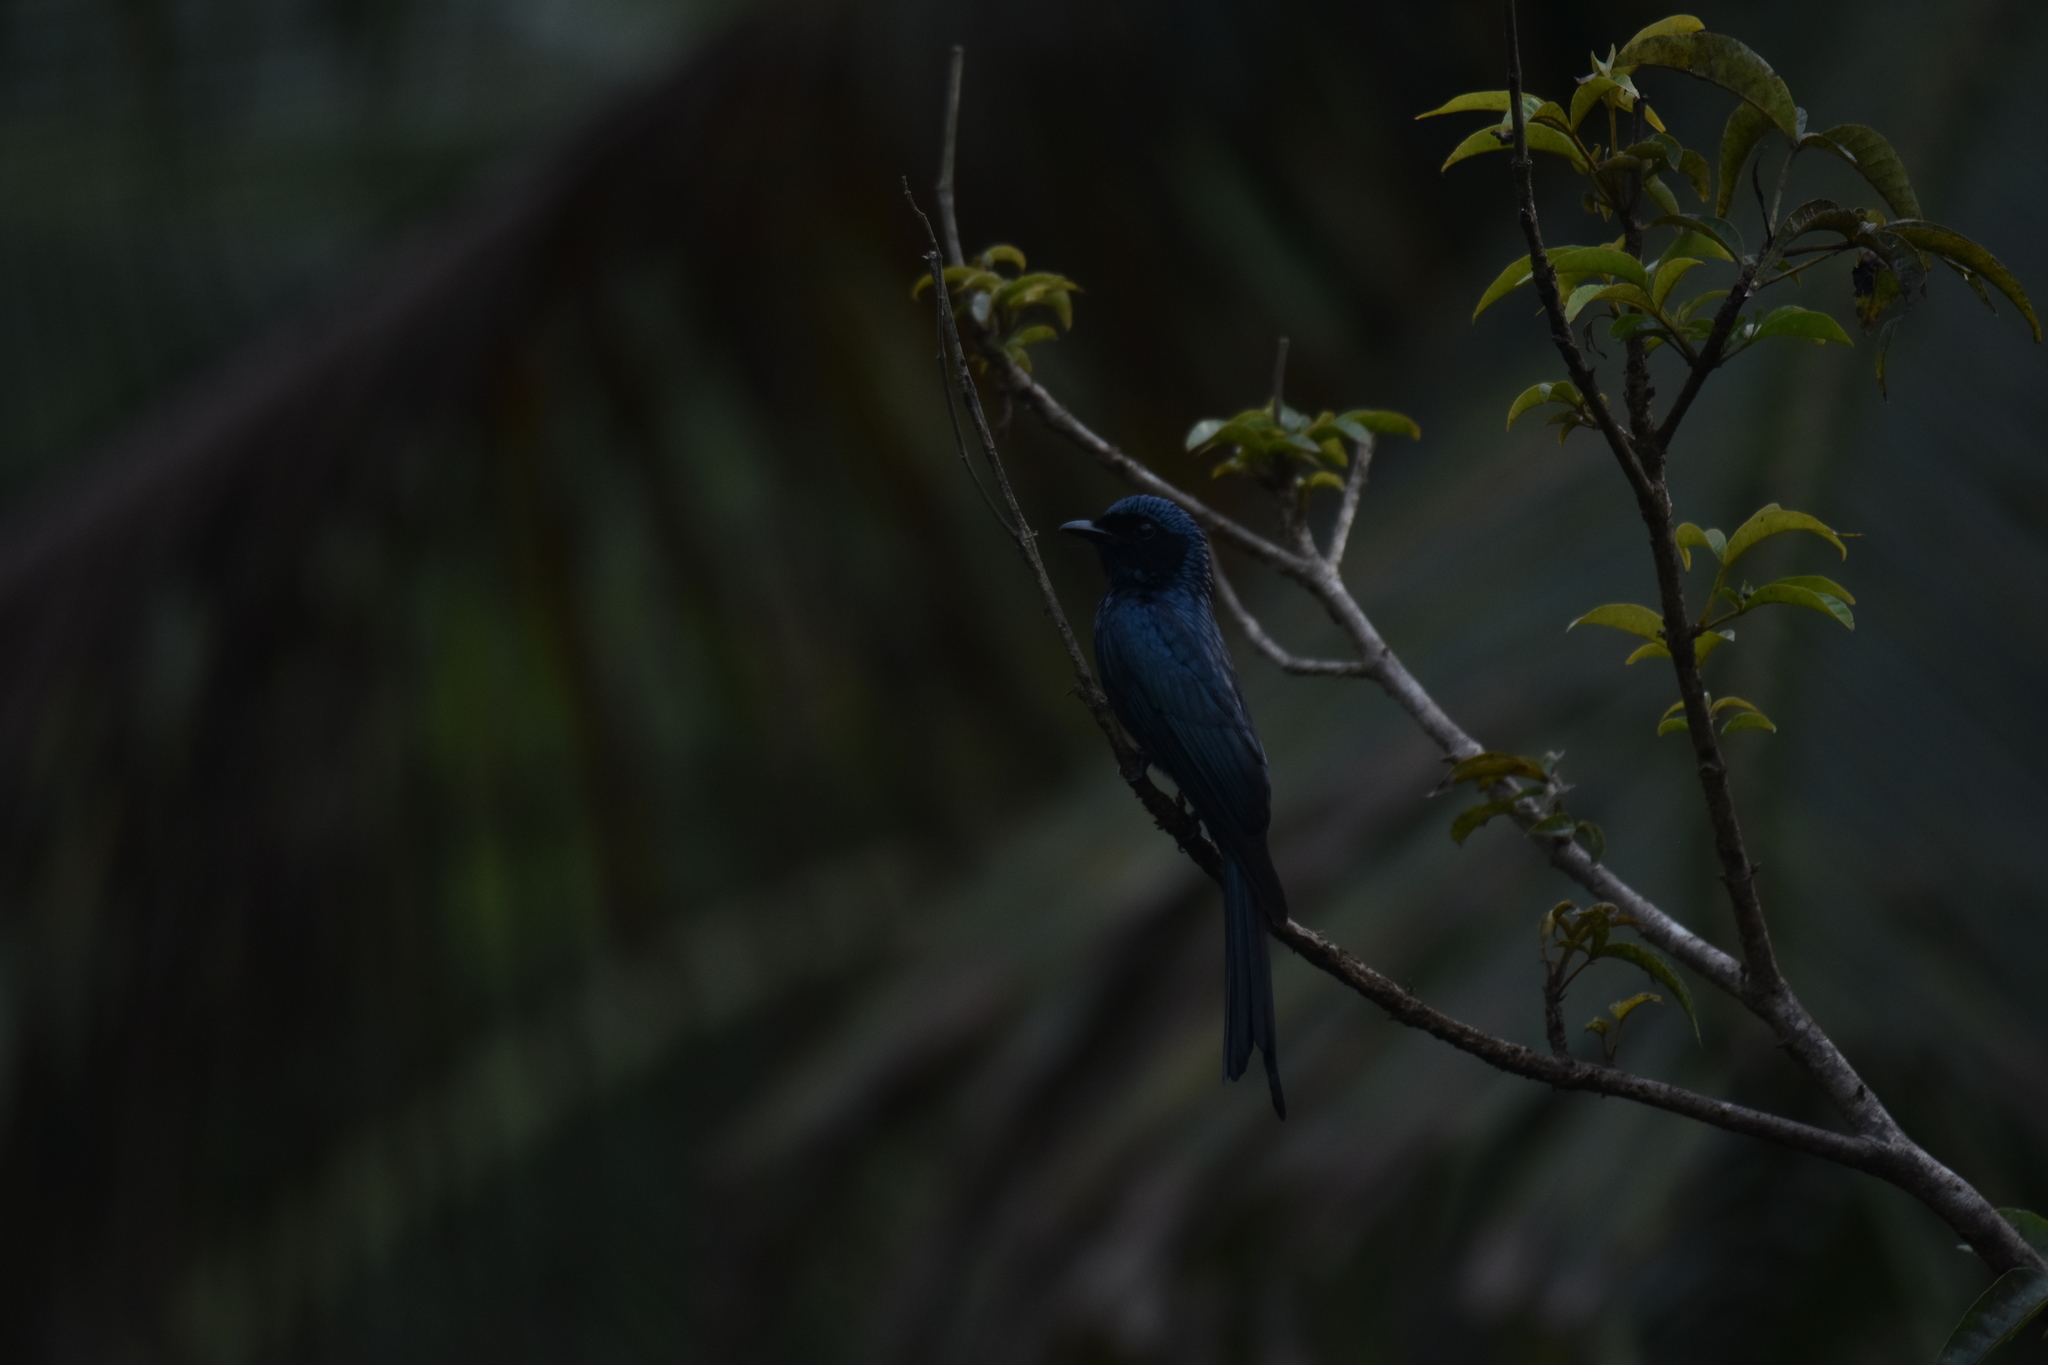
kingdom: Animalia
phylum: Chordata
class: Aves
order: Passeriformes
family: Dicruridae
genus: Dicrurus
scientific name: Dicrurus aeneus
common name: Bronzed drongo
